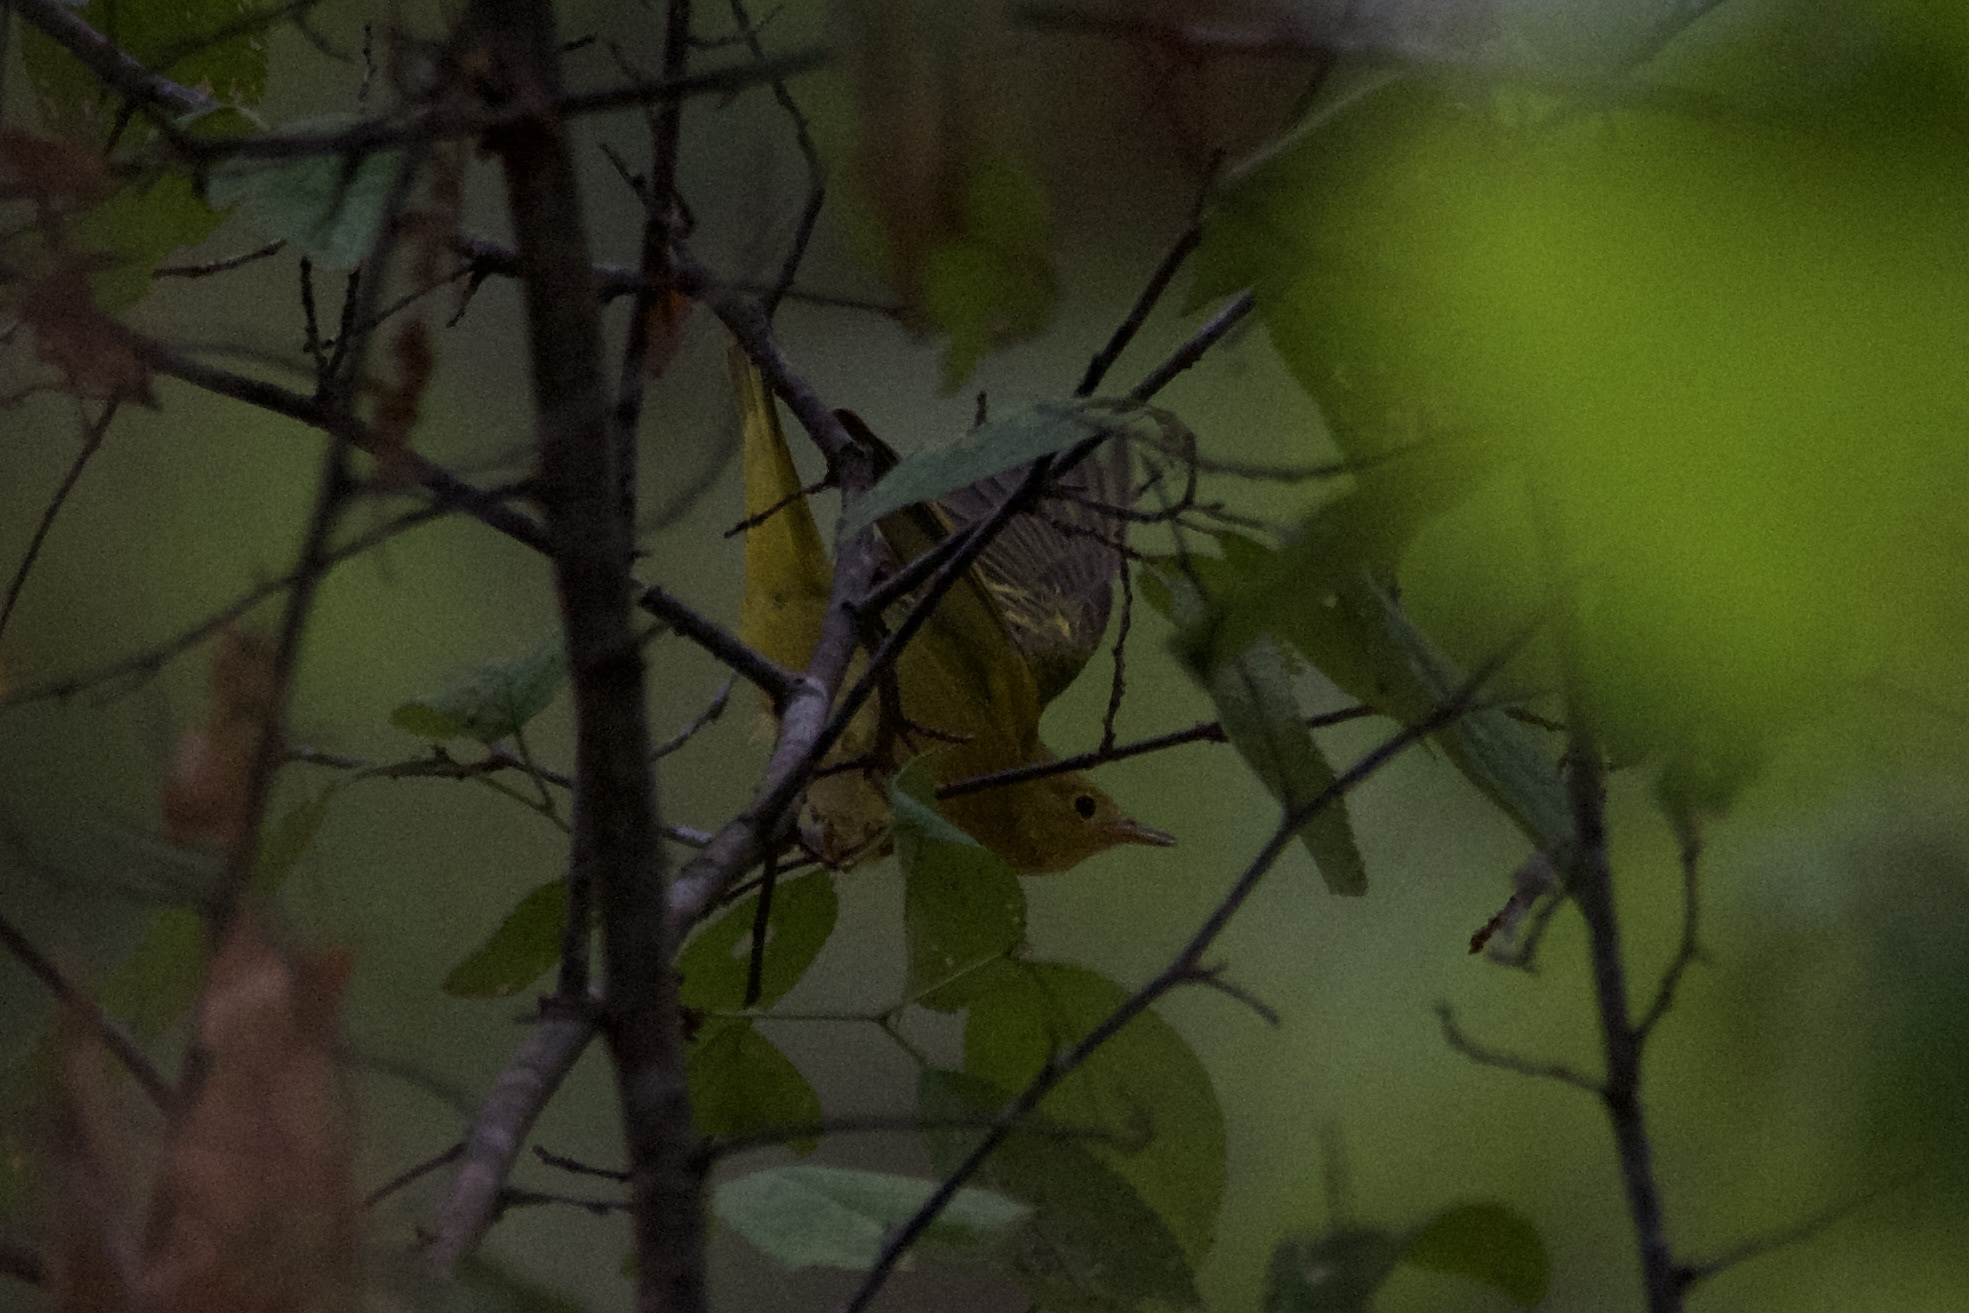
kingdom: Animalia
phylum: Chordata
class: Aves
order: Passeriformes
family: Parulidae
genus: Setophaga
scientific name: Setophaga petechia
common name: Yellow warbler
